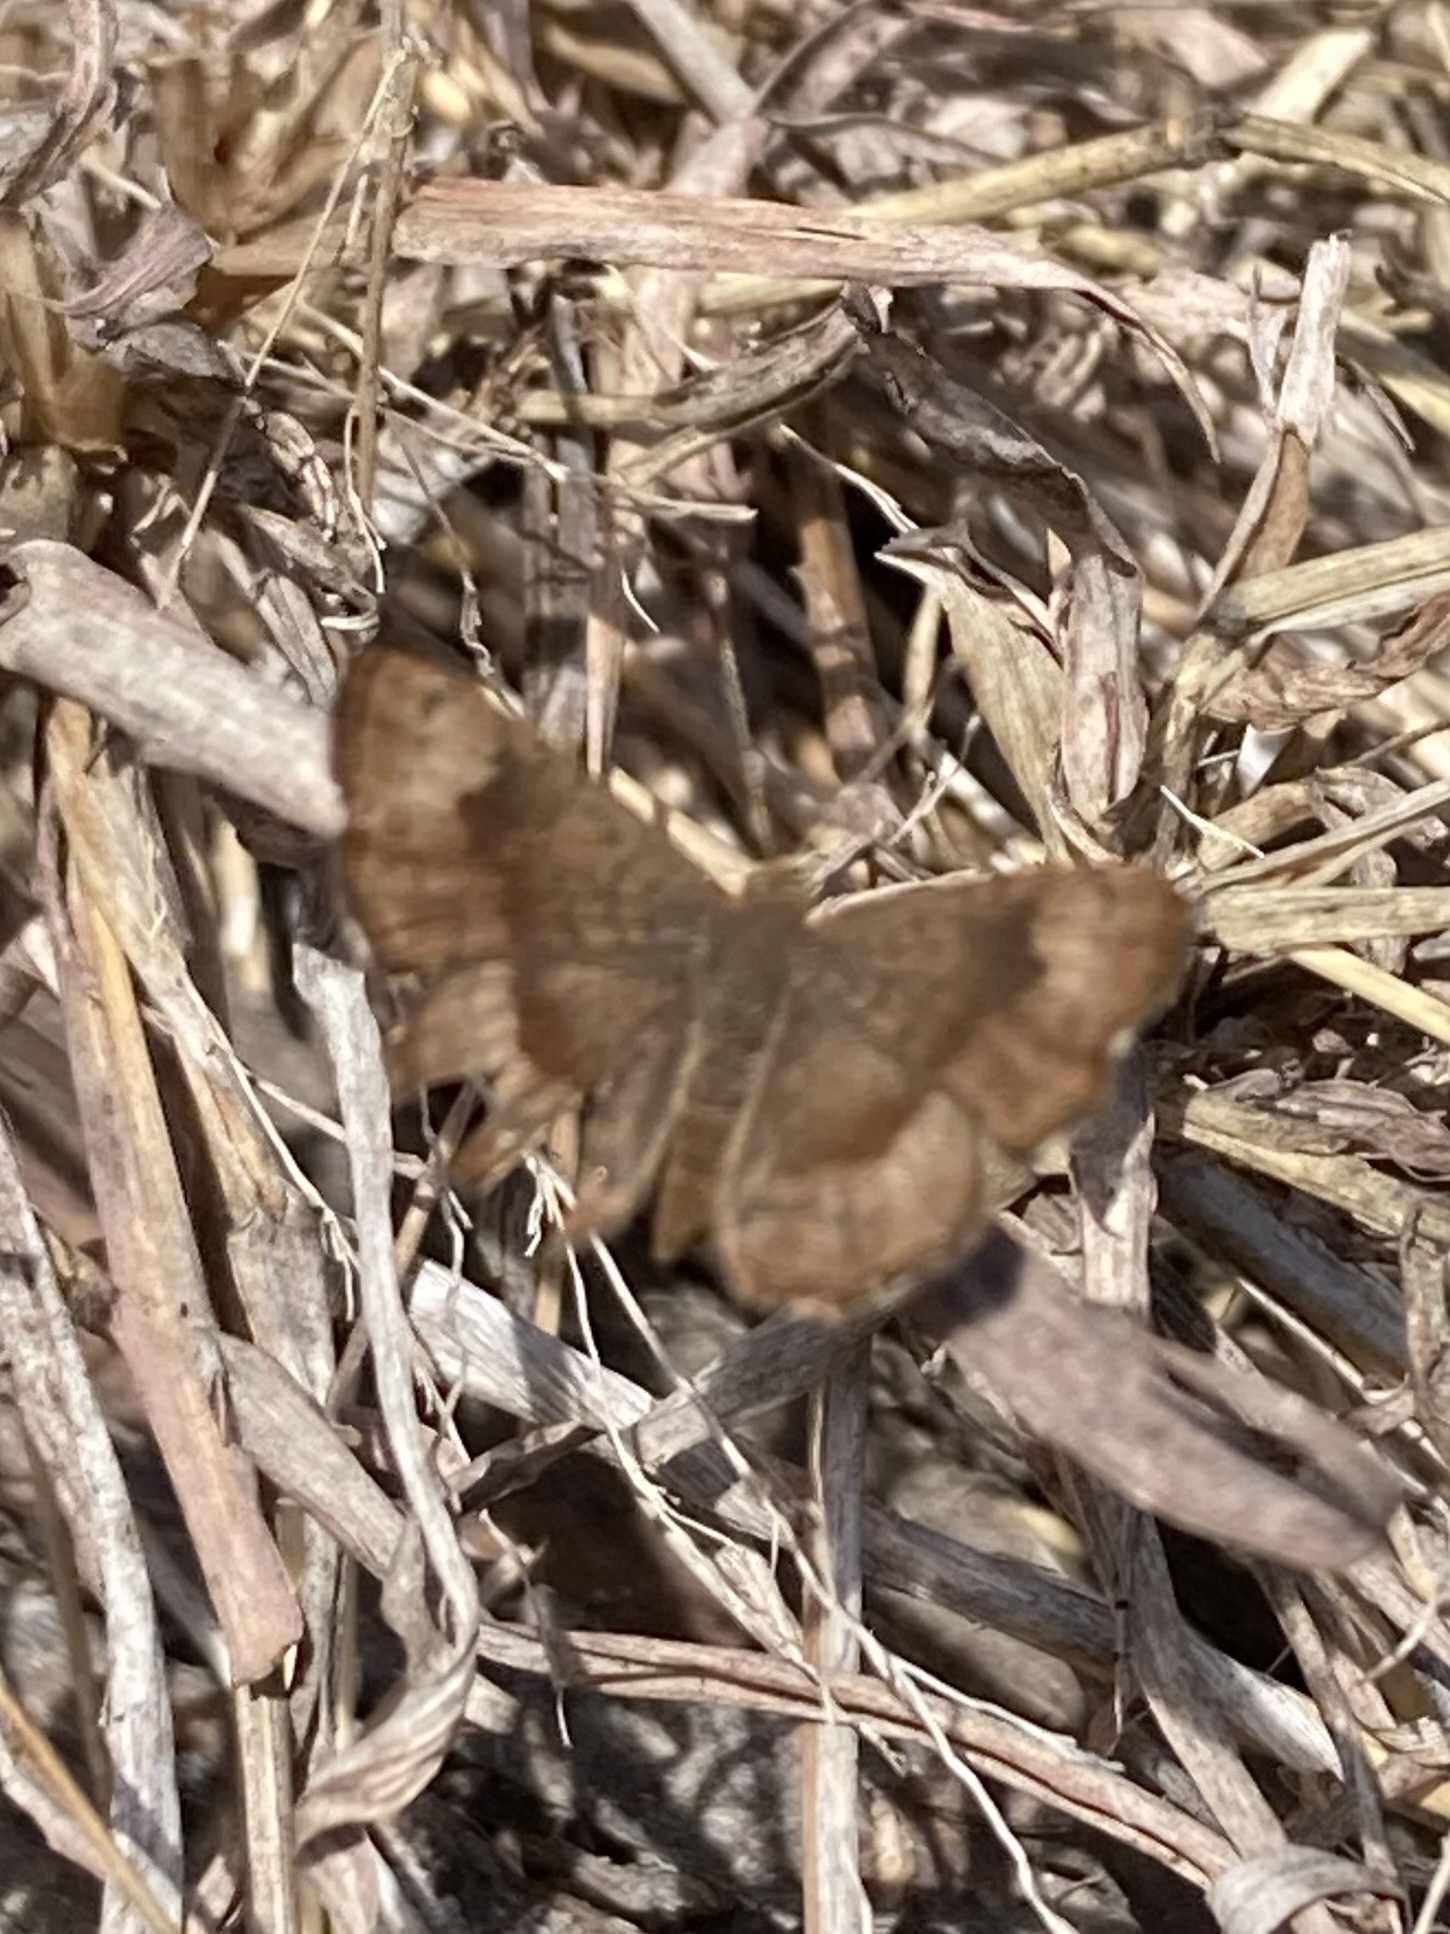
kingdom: Animalia
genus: Calephelis
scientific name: Calephelis nemesis
